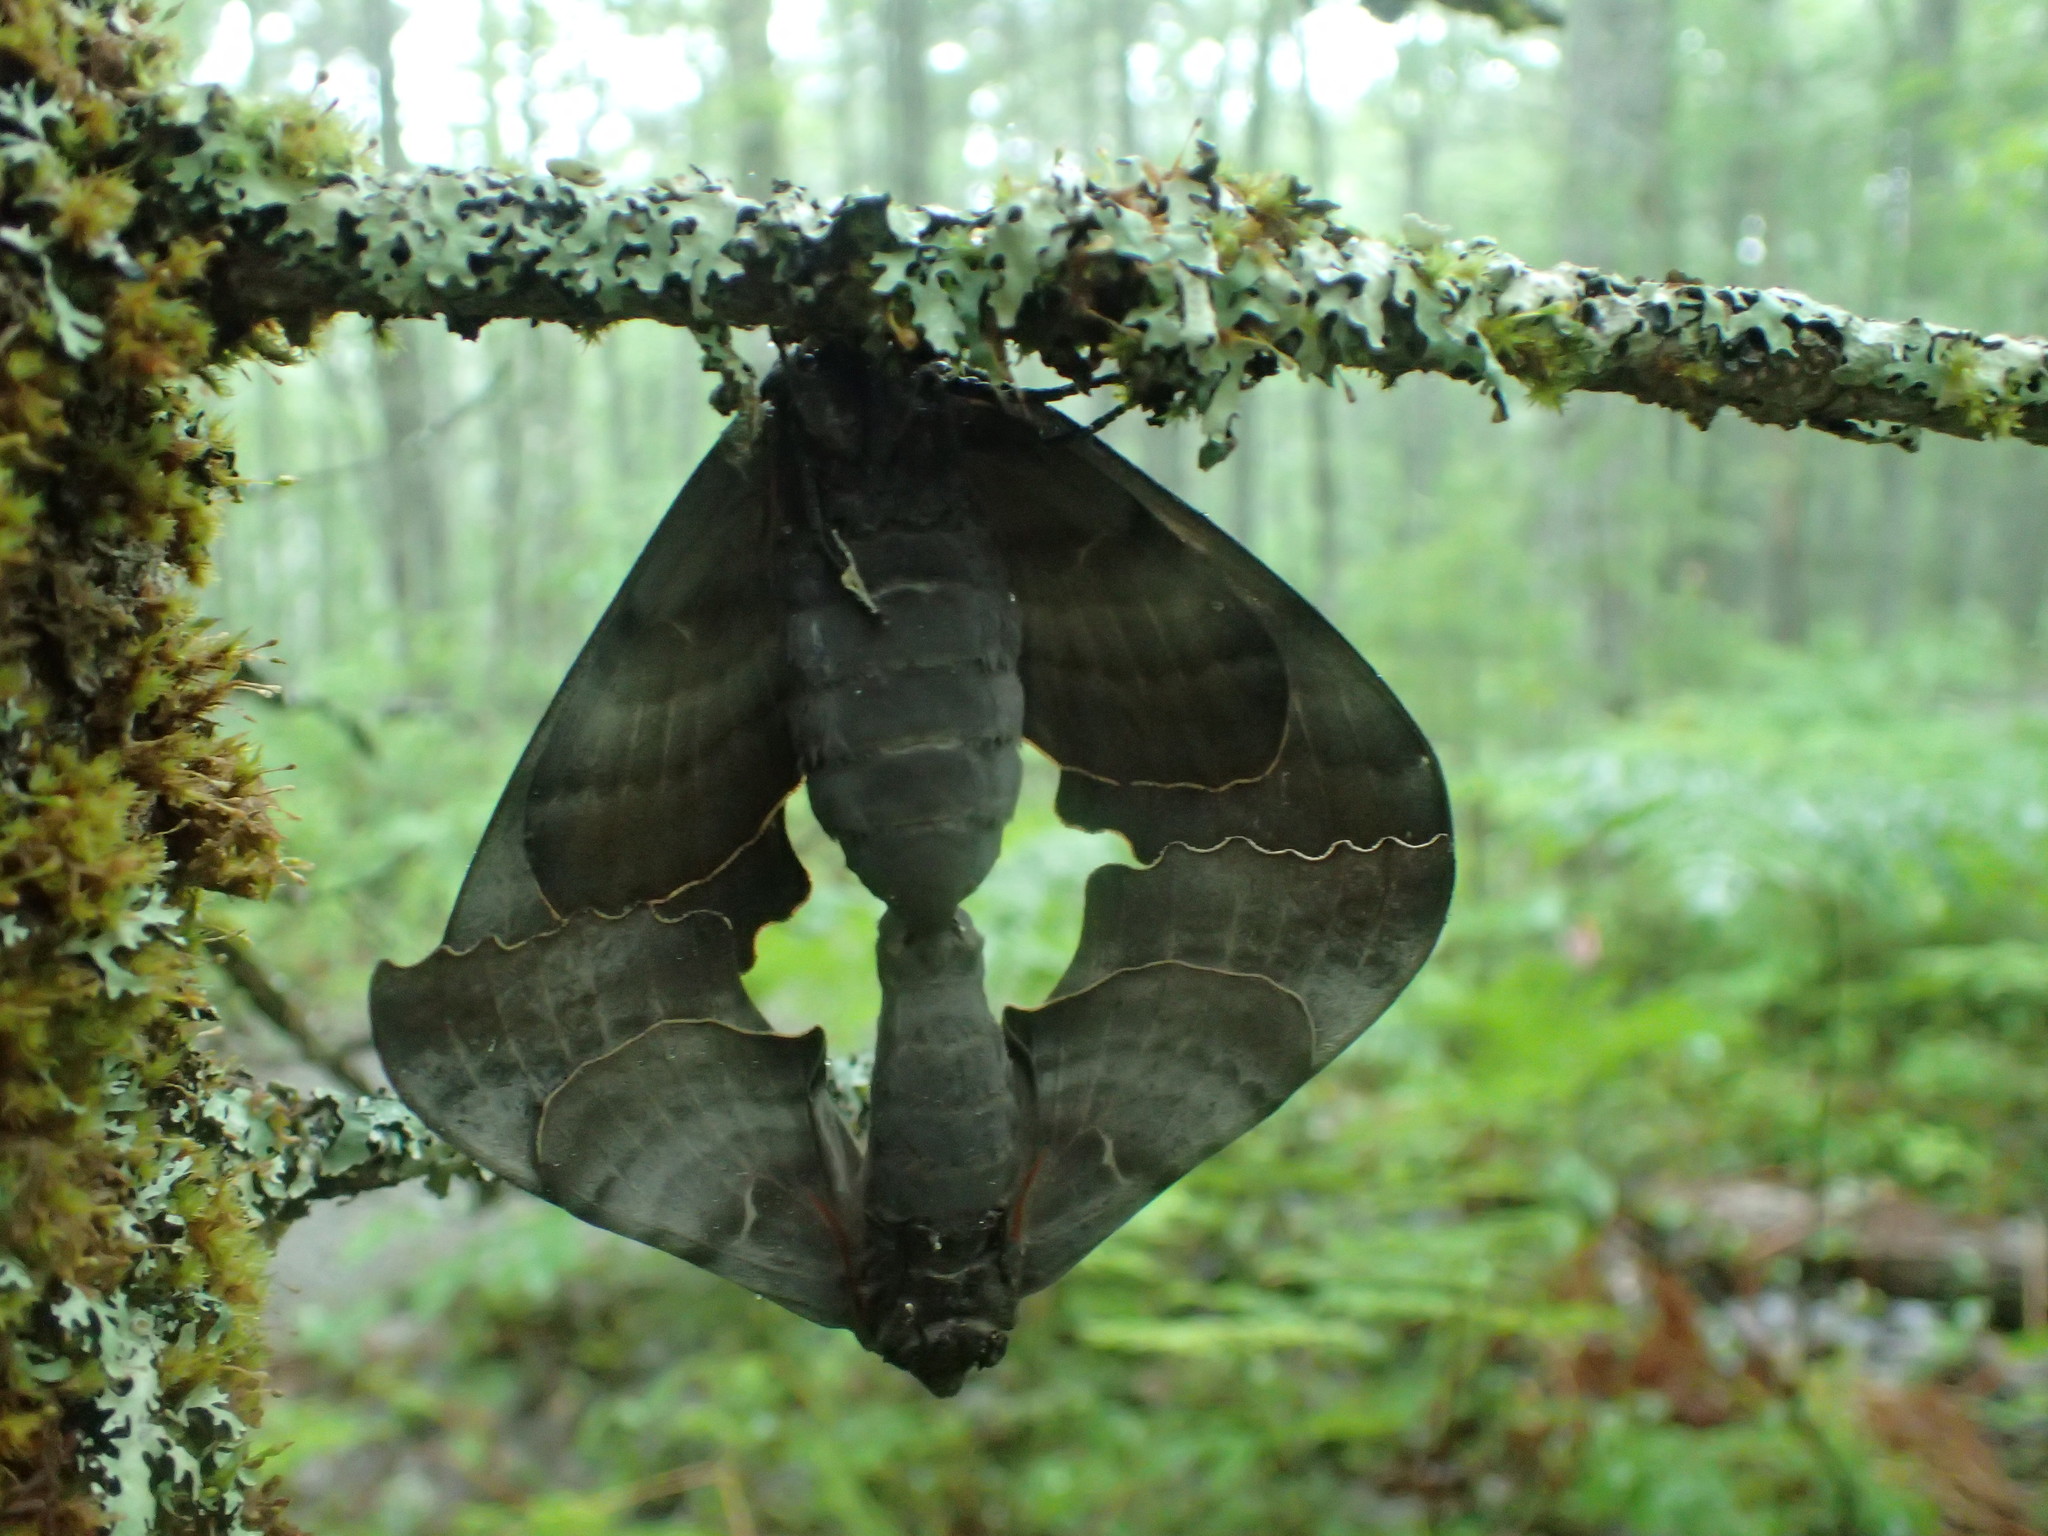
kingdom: Animalia
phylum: Arthropoda
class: Insecta
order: Lepidoptera
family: Sphingidae
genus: Pachysphinx
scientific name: Pachysphinx modesta
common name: Big poplar sphinx
